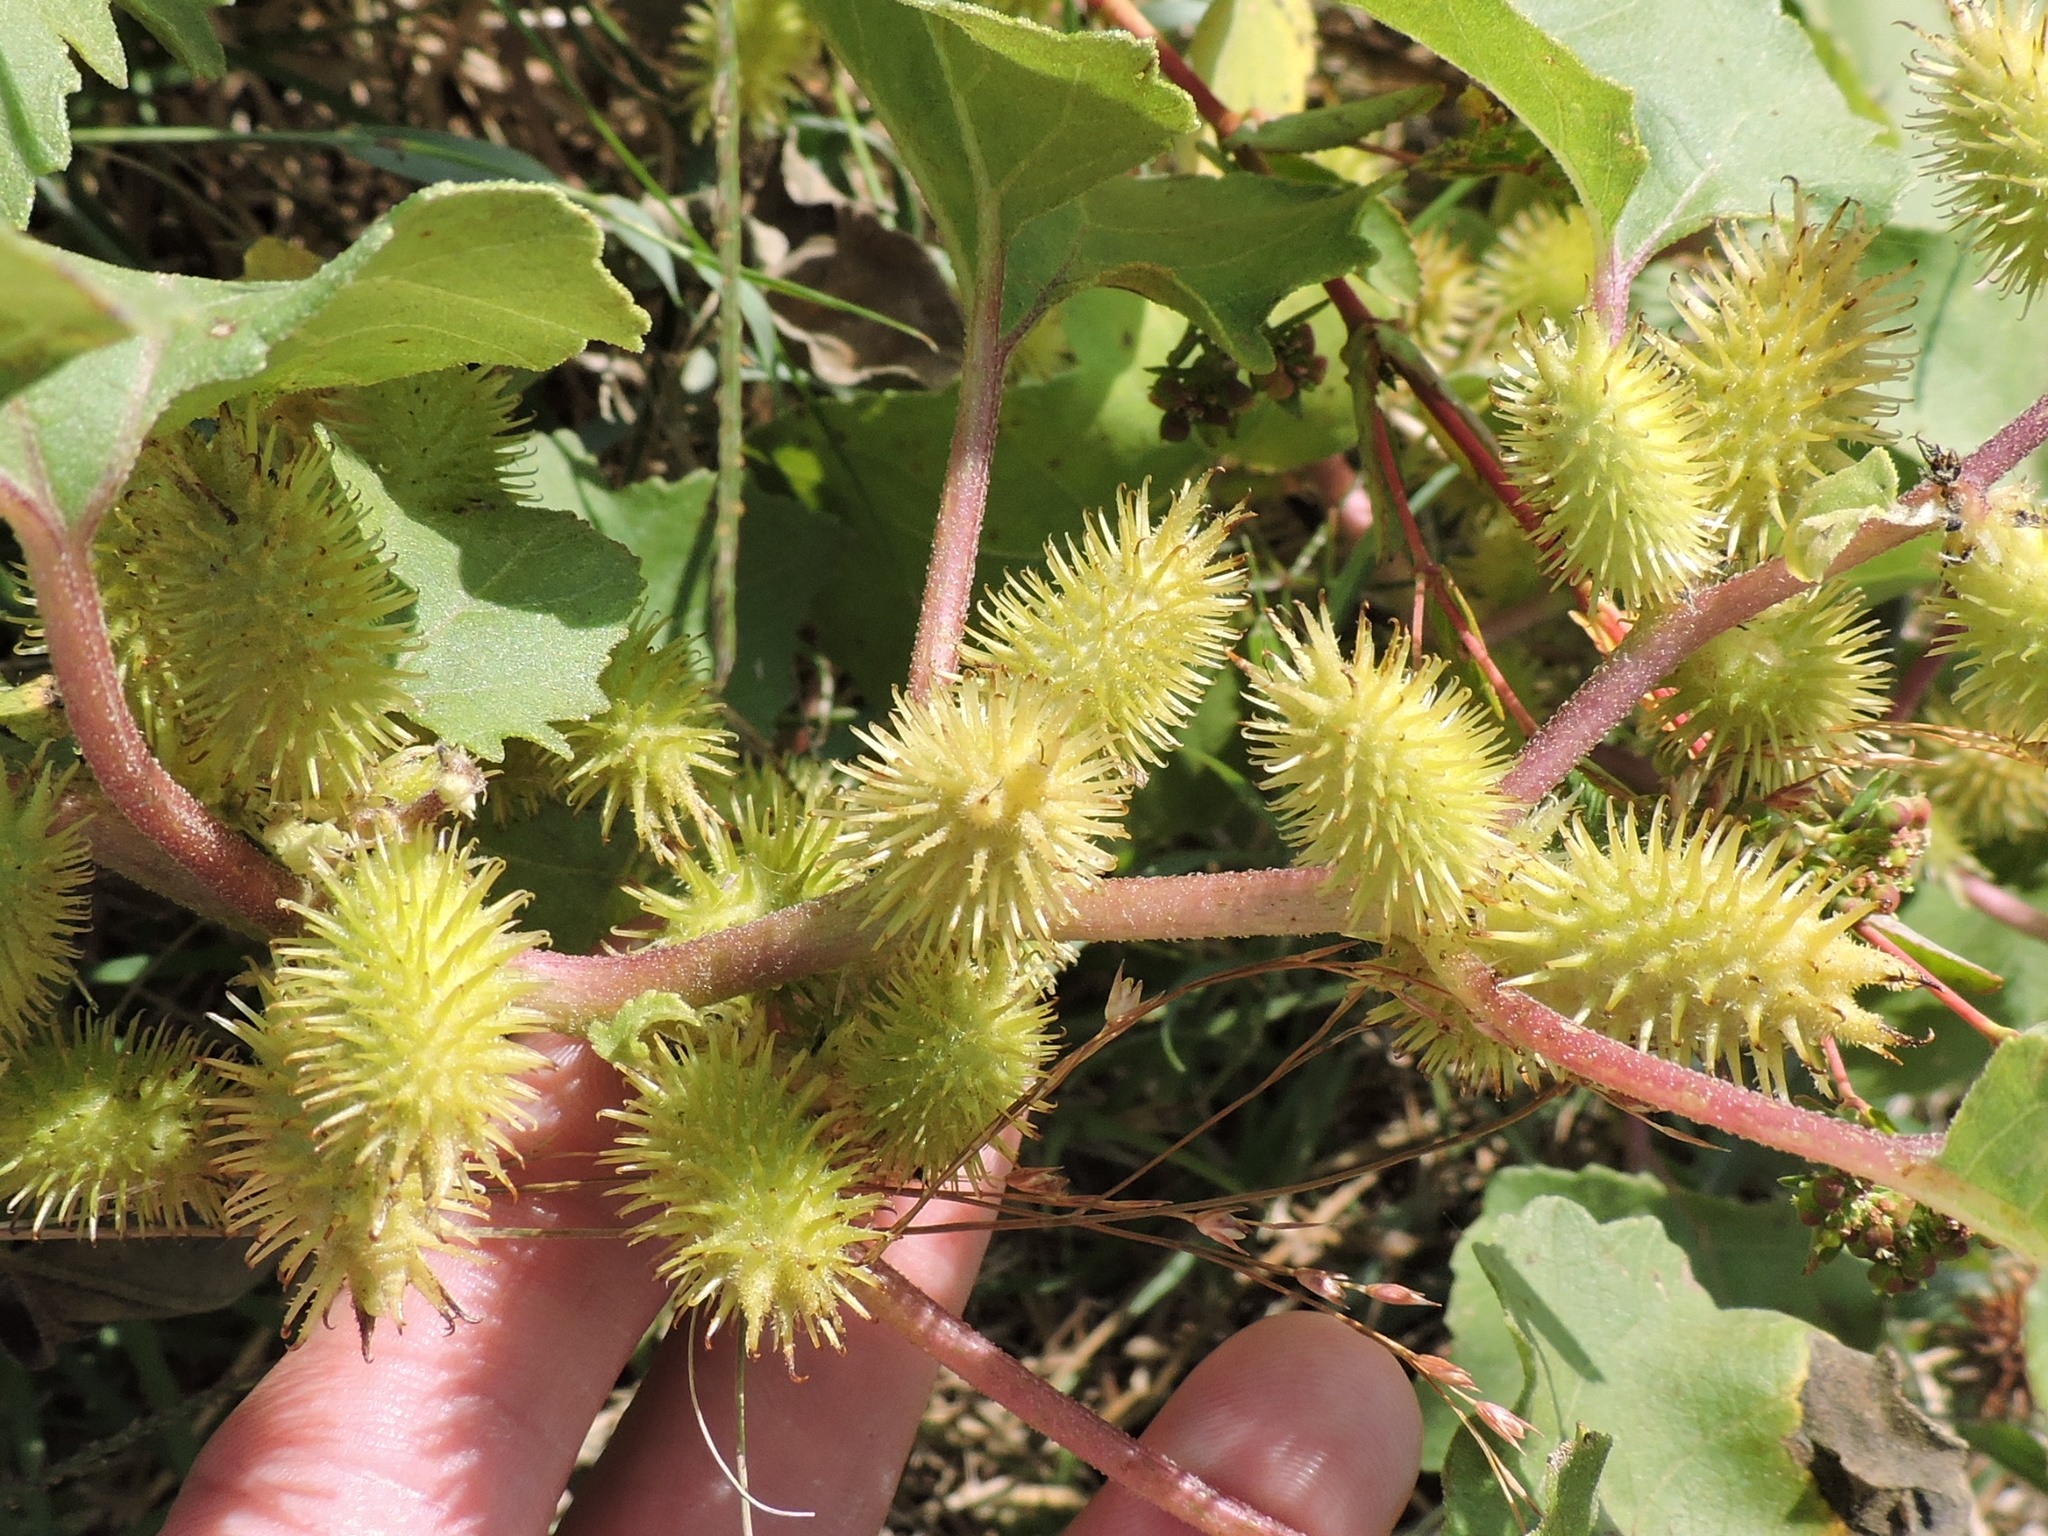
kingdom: Plantae
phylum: Tracheophyta
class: Magnoliopsida
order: Asterales
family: Asteraceae
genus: Xanthium
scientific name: Xanthium strumarium
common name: Rough cocklebur
